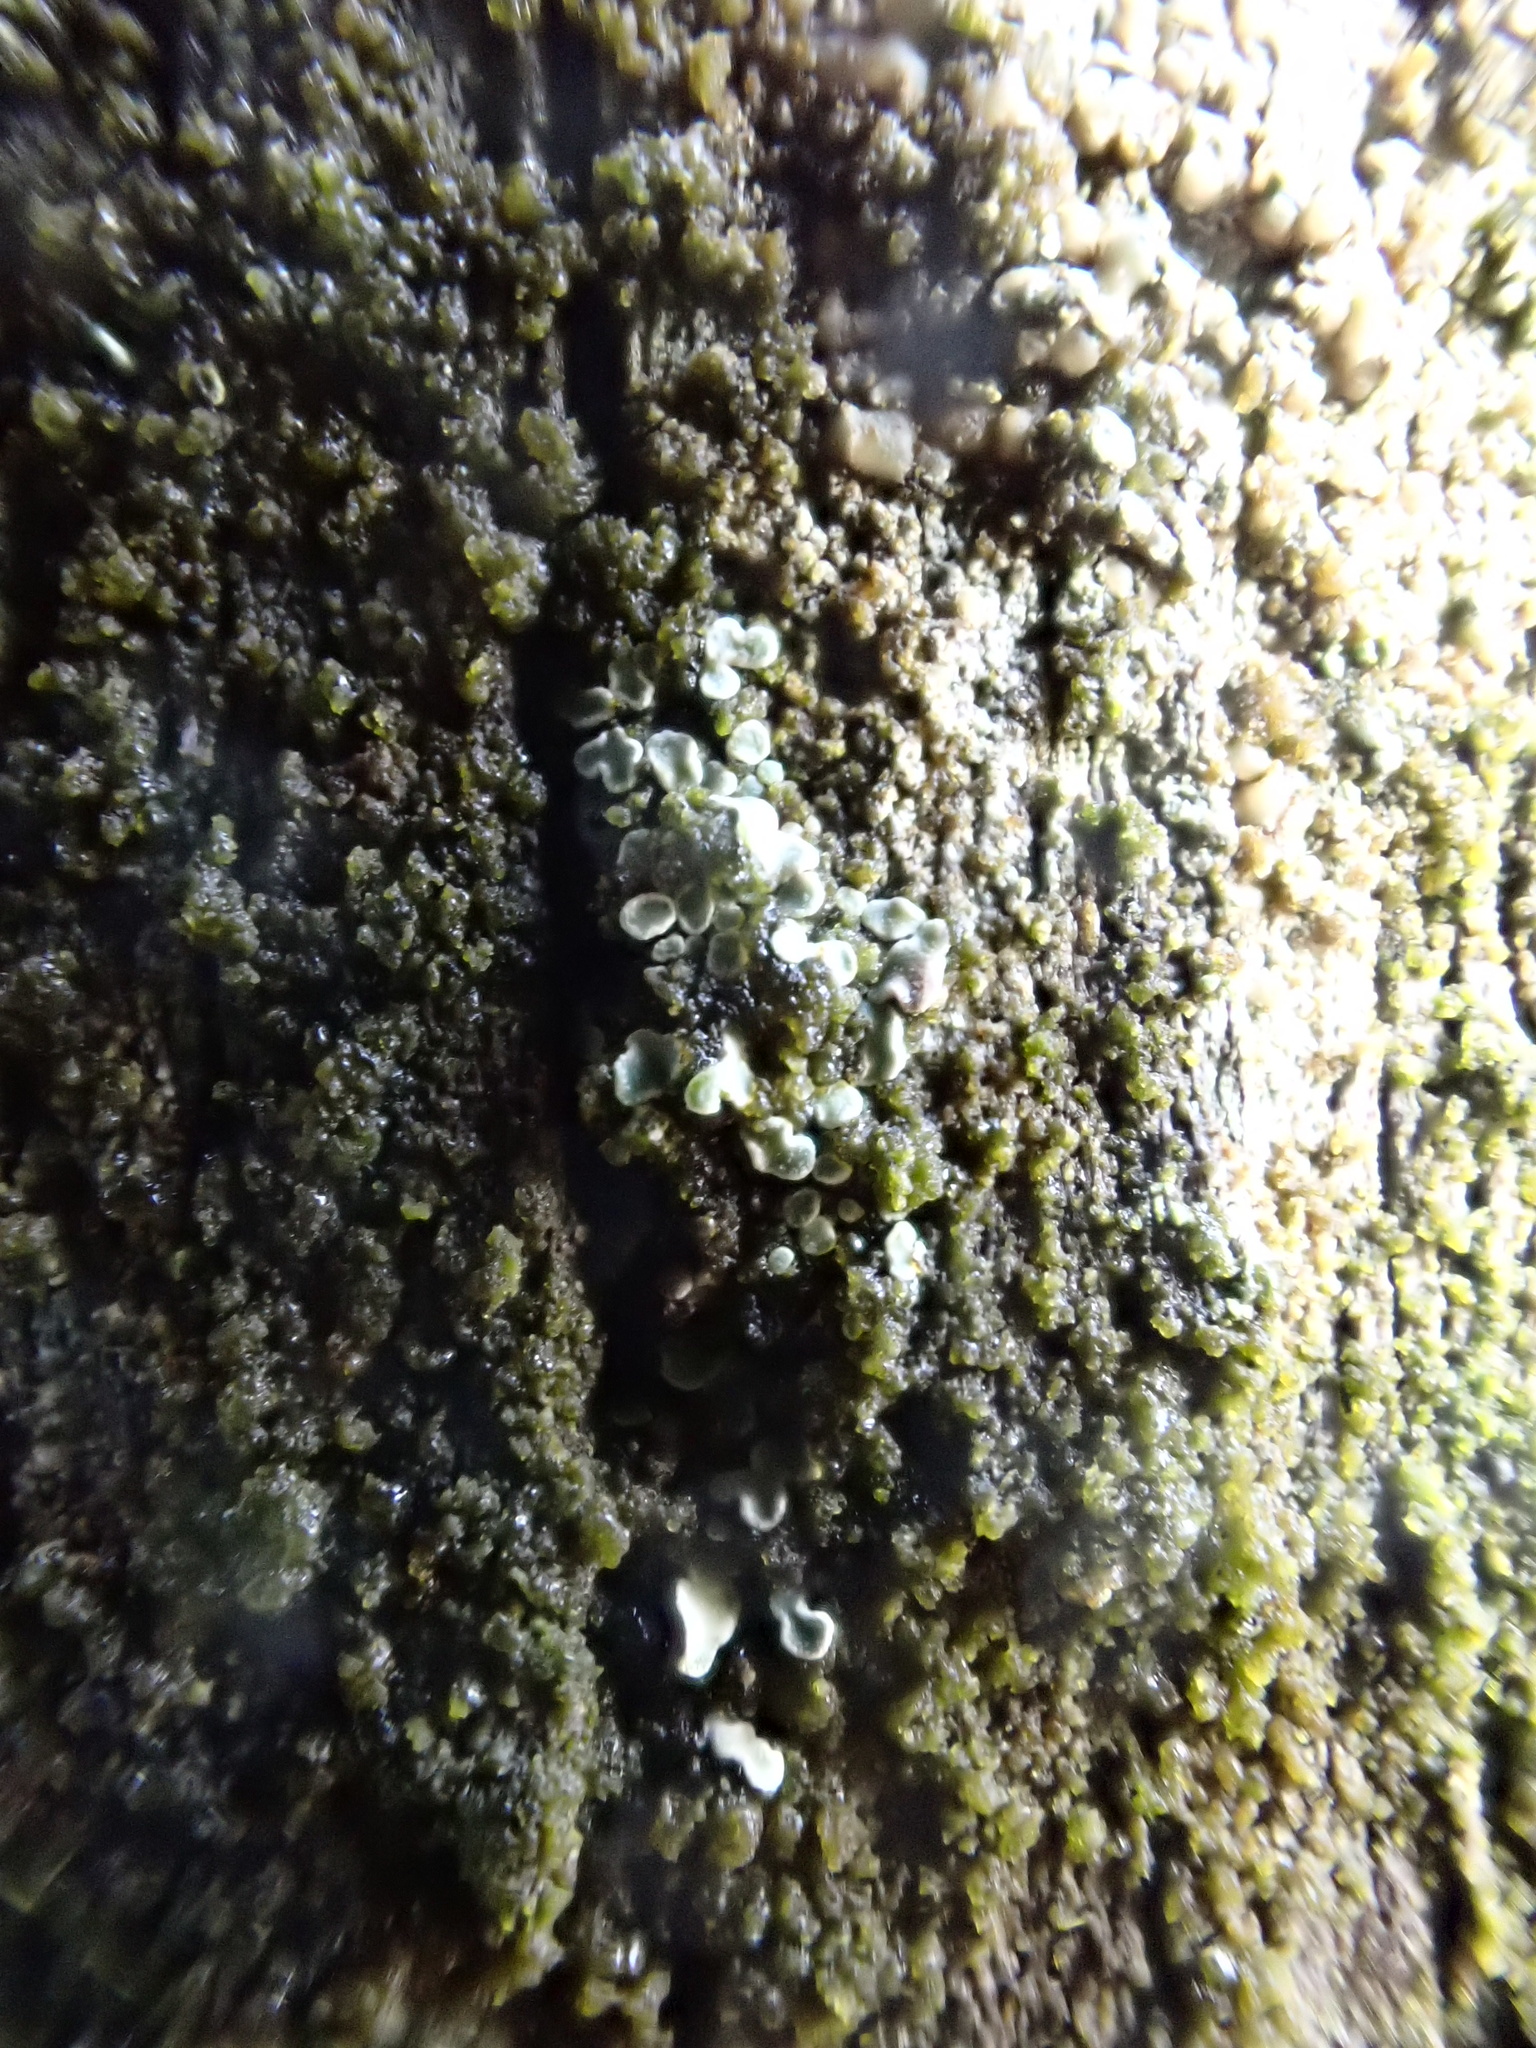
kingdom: Fungi
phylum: Ascomycota
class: Eurotiomycetes
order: Verrucariales
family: Verrucariaceae
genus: Normandina
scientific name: Normandina pulchella
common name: Elf ears lichen
